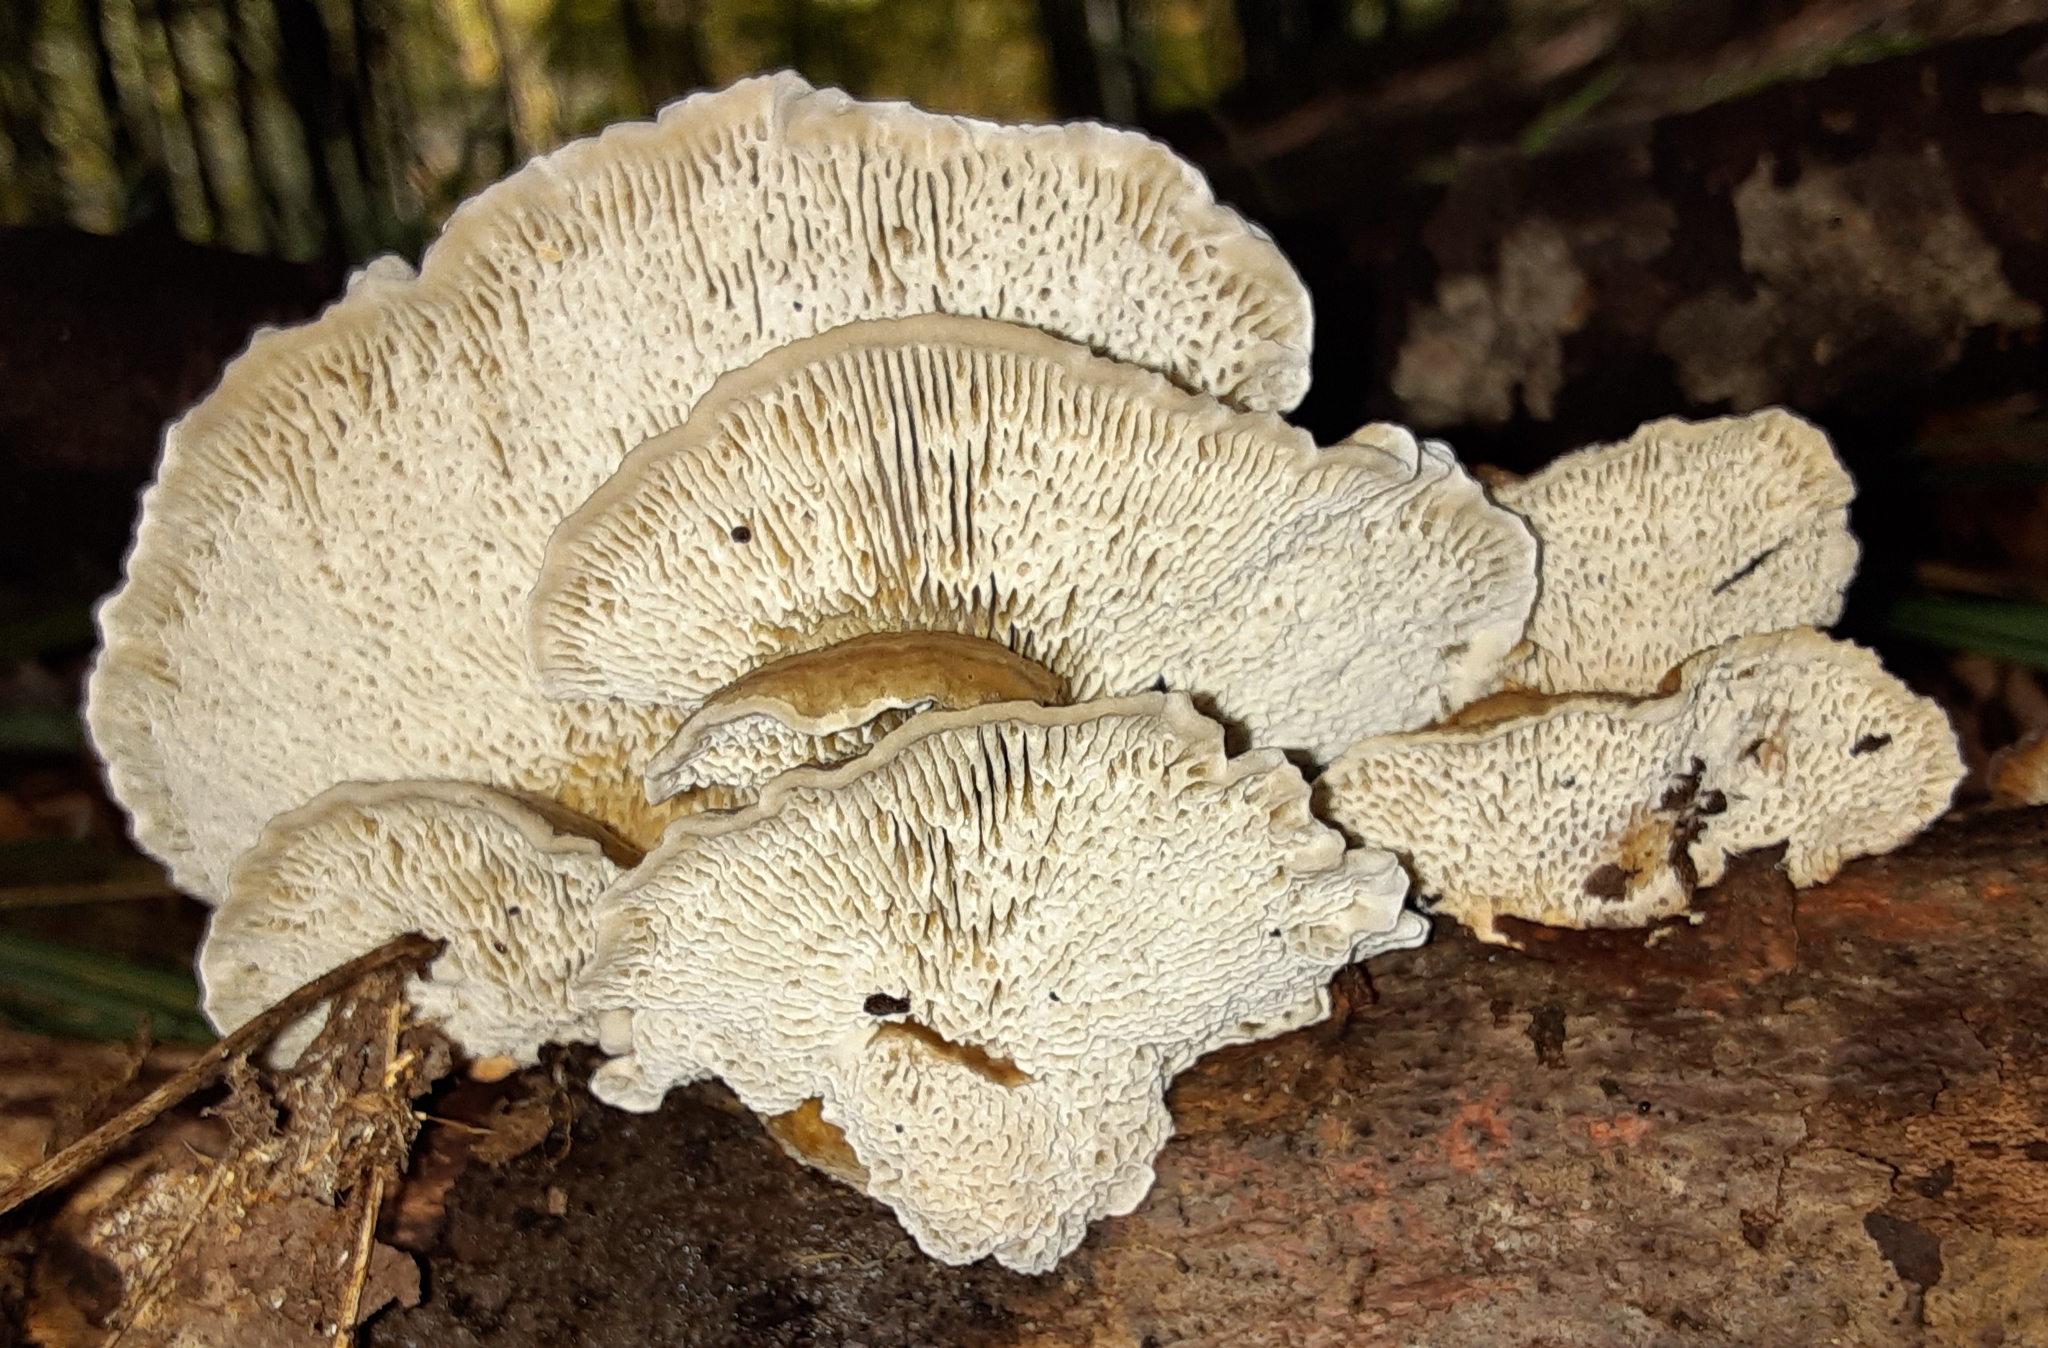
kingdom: Fungi
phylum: Basidiomycota
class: Agaricomycetes
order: Polyporales
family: Polyporaceae
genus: Daedaleopsis
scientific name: Daedaleopsis confragosa
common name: Blushing bracket
